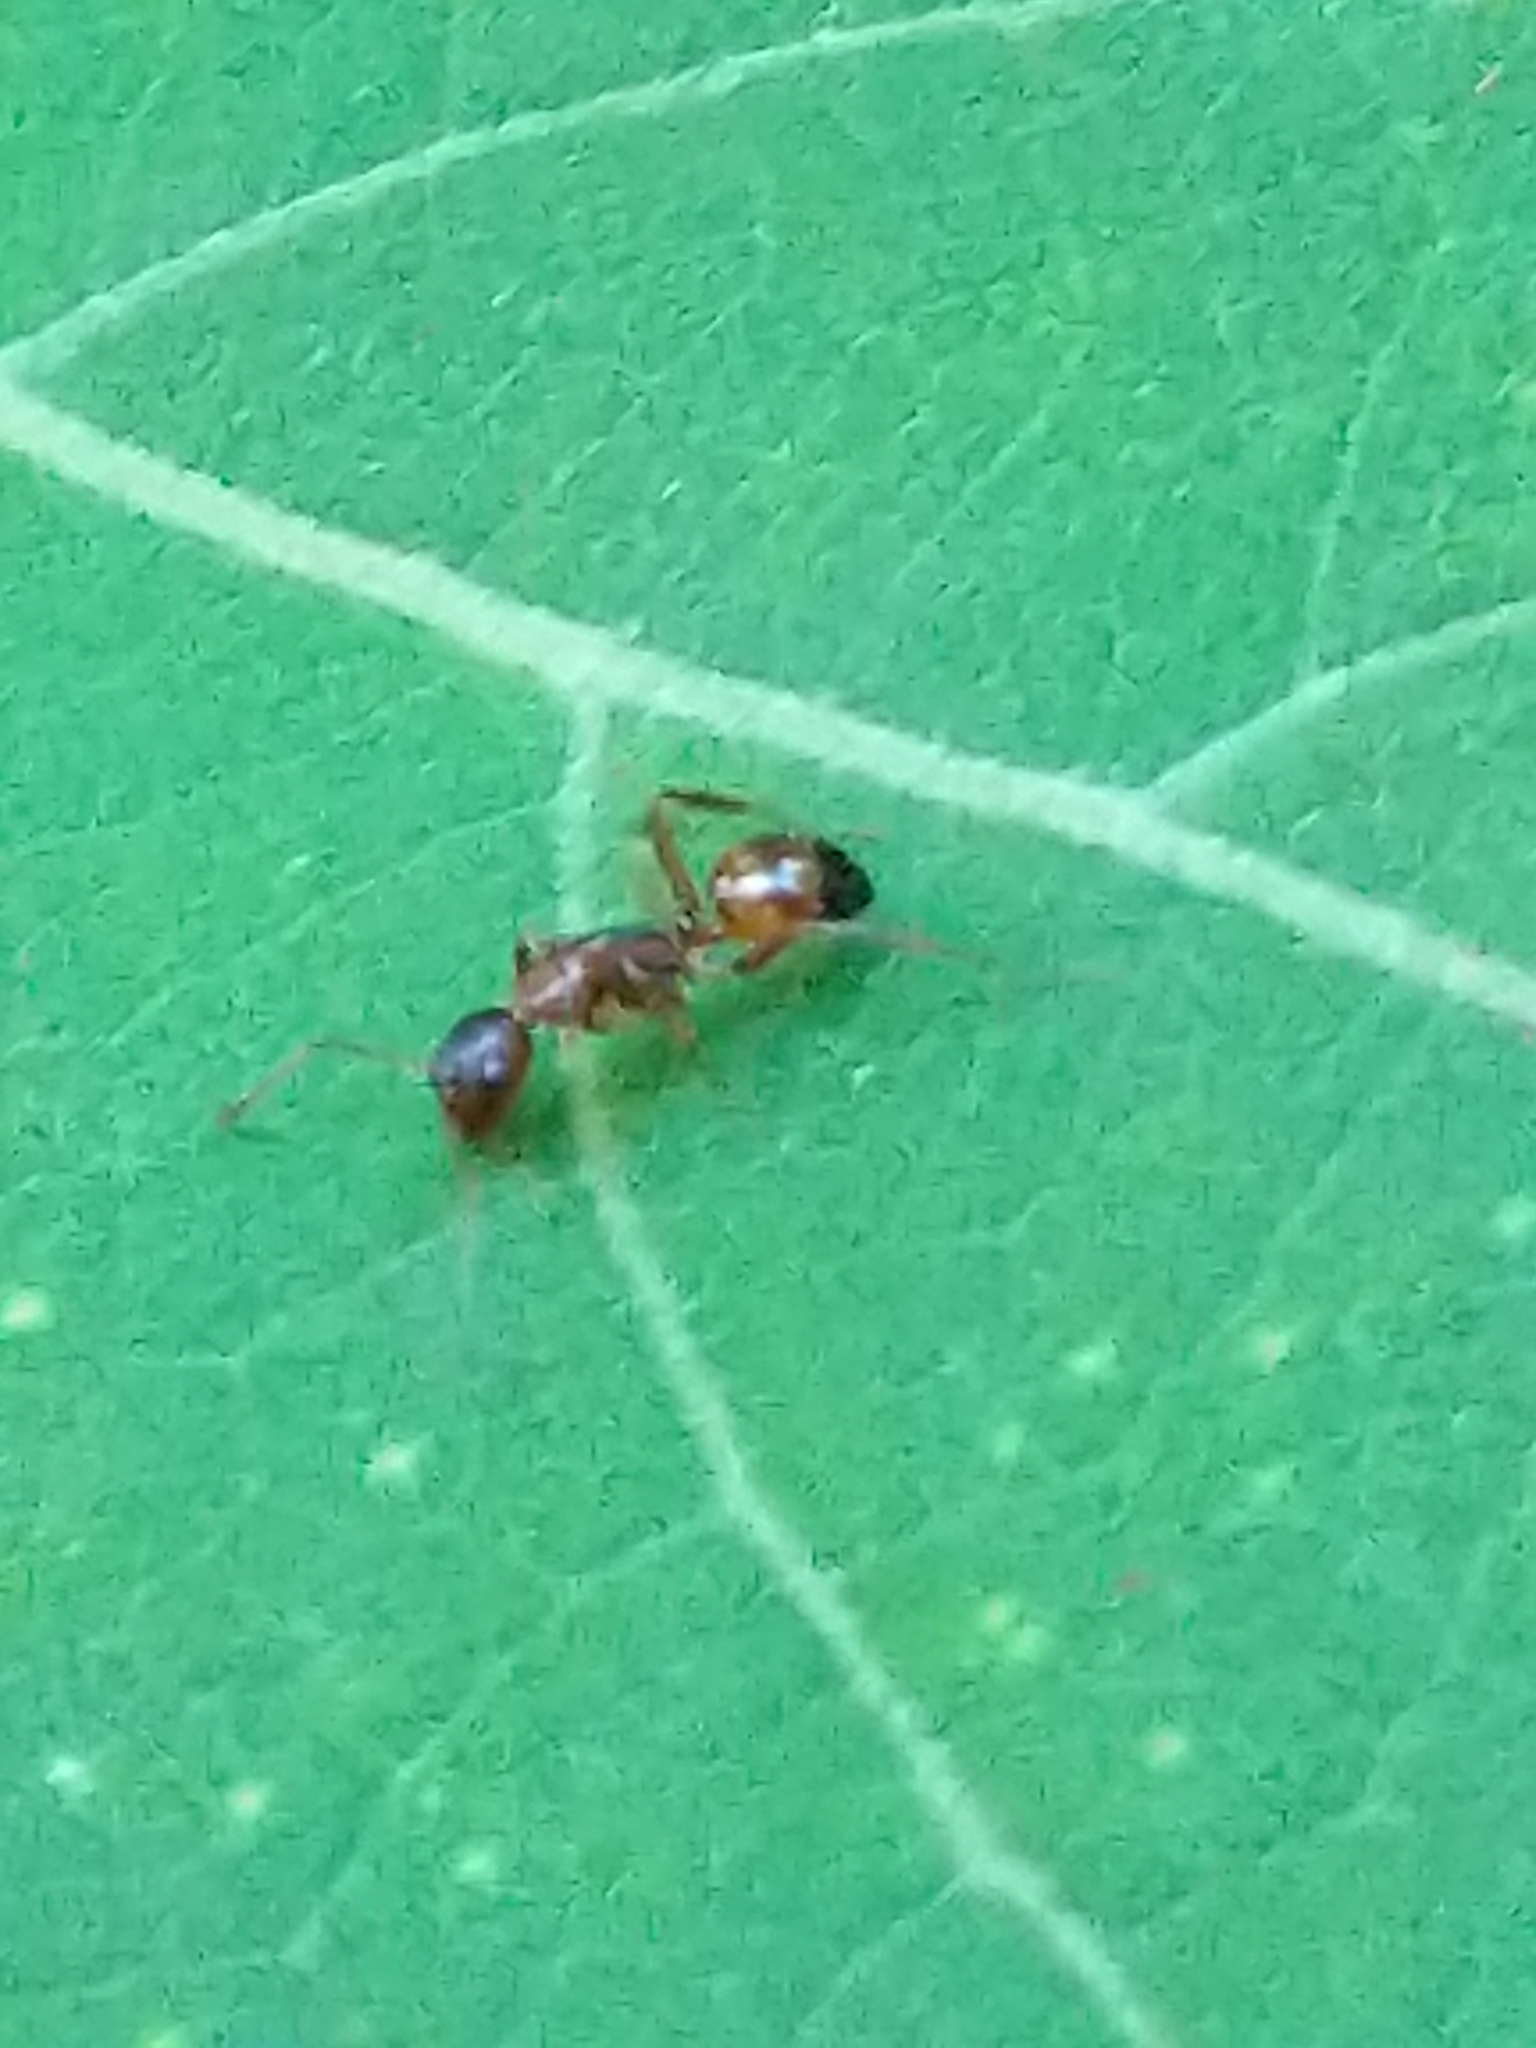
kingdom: Animalia
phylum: Arthropoda
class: Insecta
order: Hymenoptera
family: Formicidae
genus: Camponotus
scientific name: Camponotus subbarbatus
